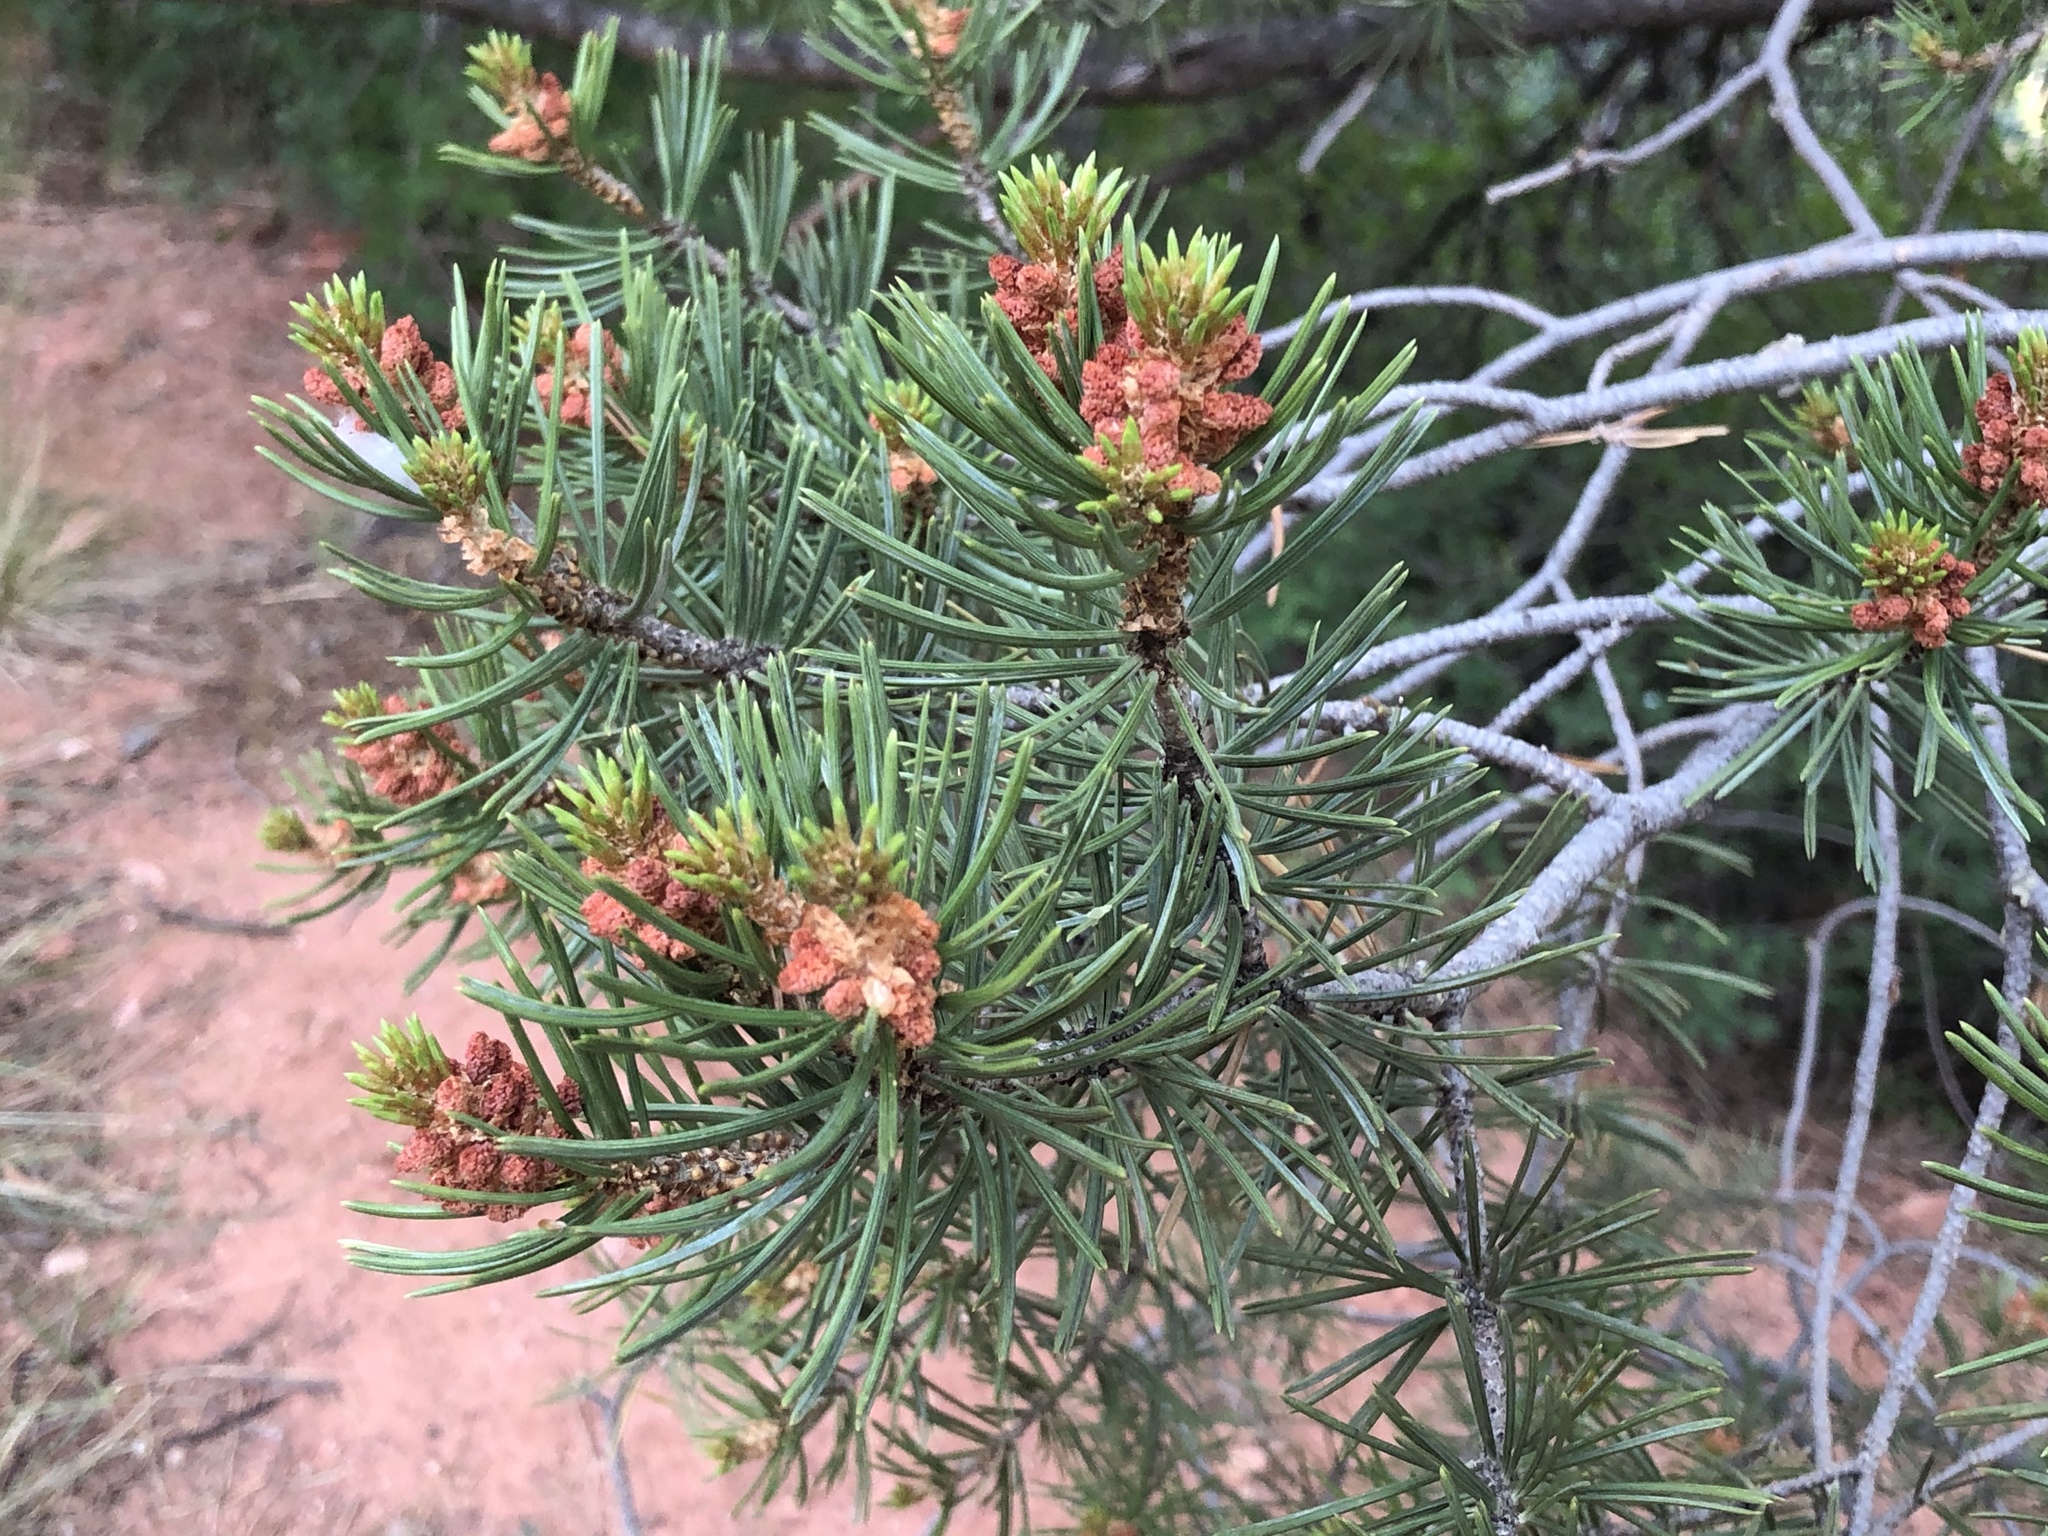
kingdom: Plantae
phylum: Tracheophyta
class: Pinopsida
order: Pinales
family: Pinaceae
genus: Pinus
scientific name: Pinus edulis
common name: Colorado pinyon
